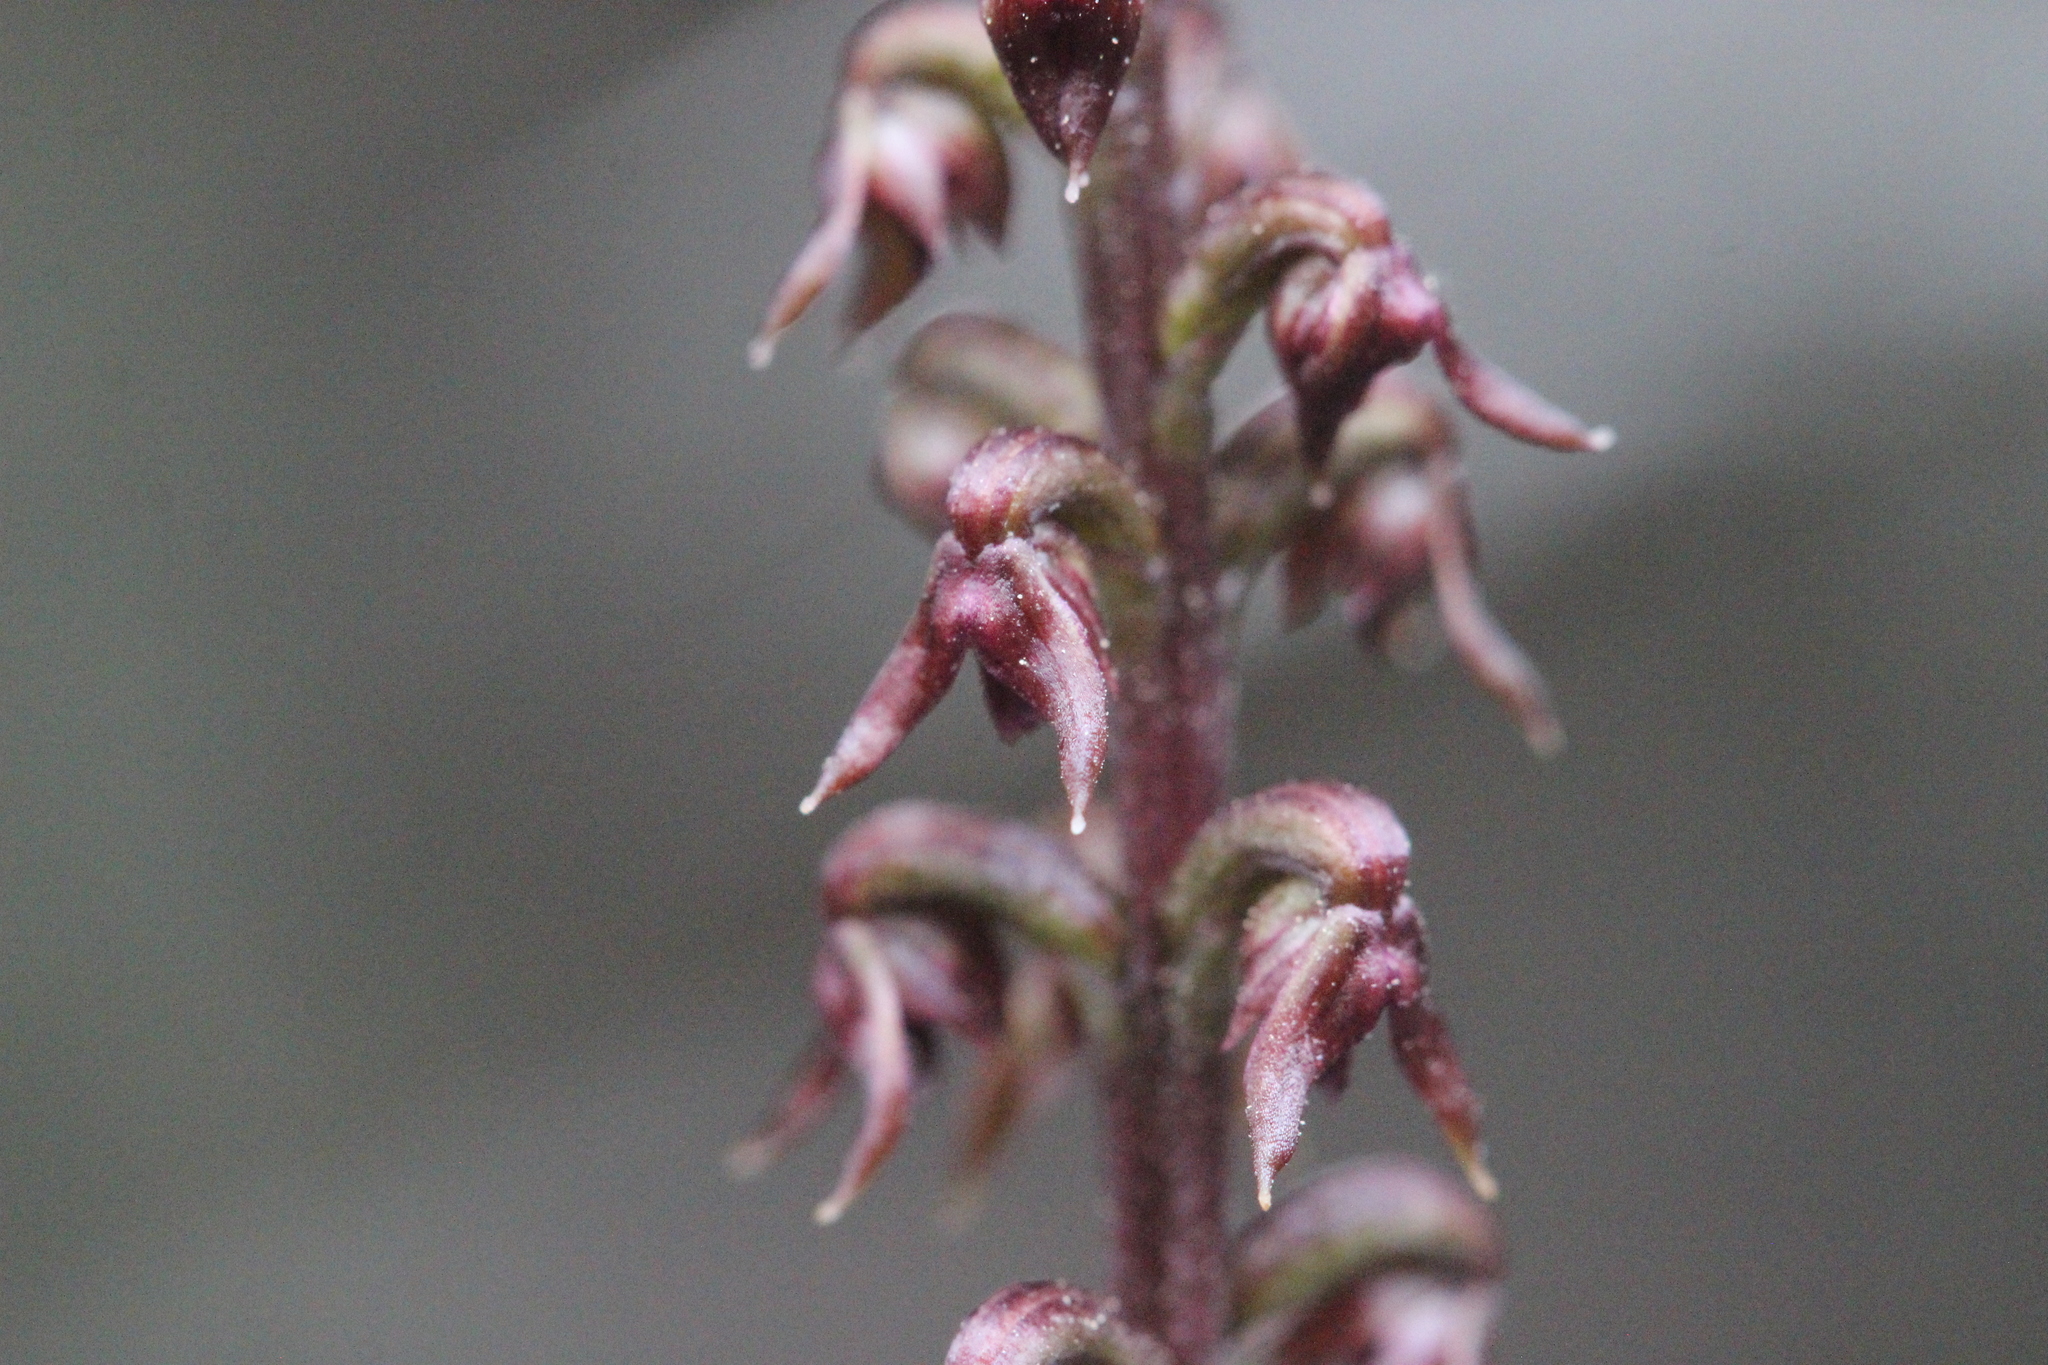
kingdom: Plantae
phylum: Tracheophyta
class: Liliopsida
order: Asparagales
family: Orchidaceae
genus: Genoplesium
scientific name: Genoplesium nudum
